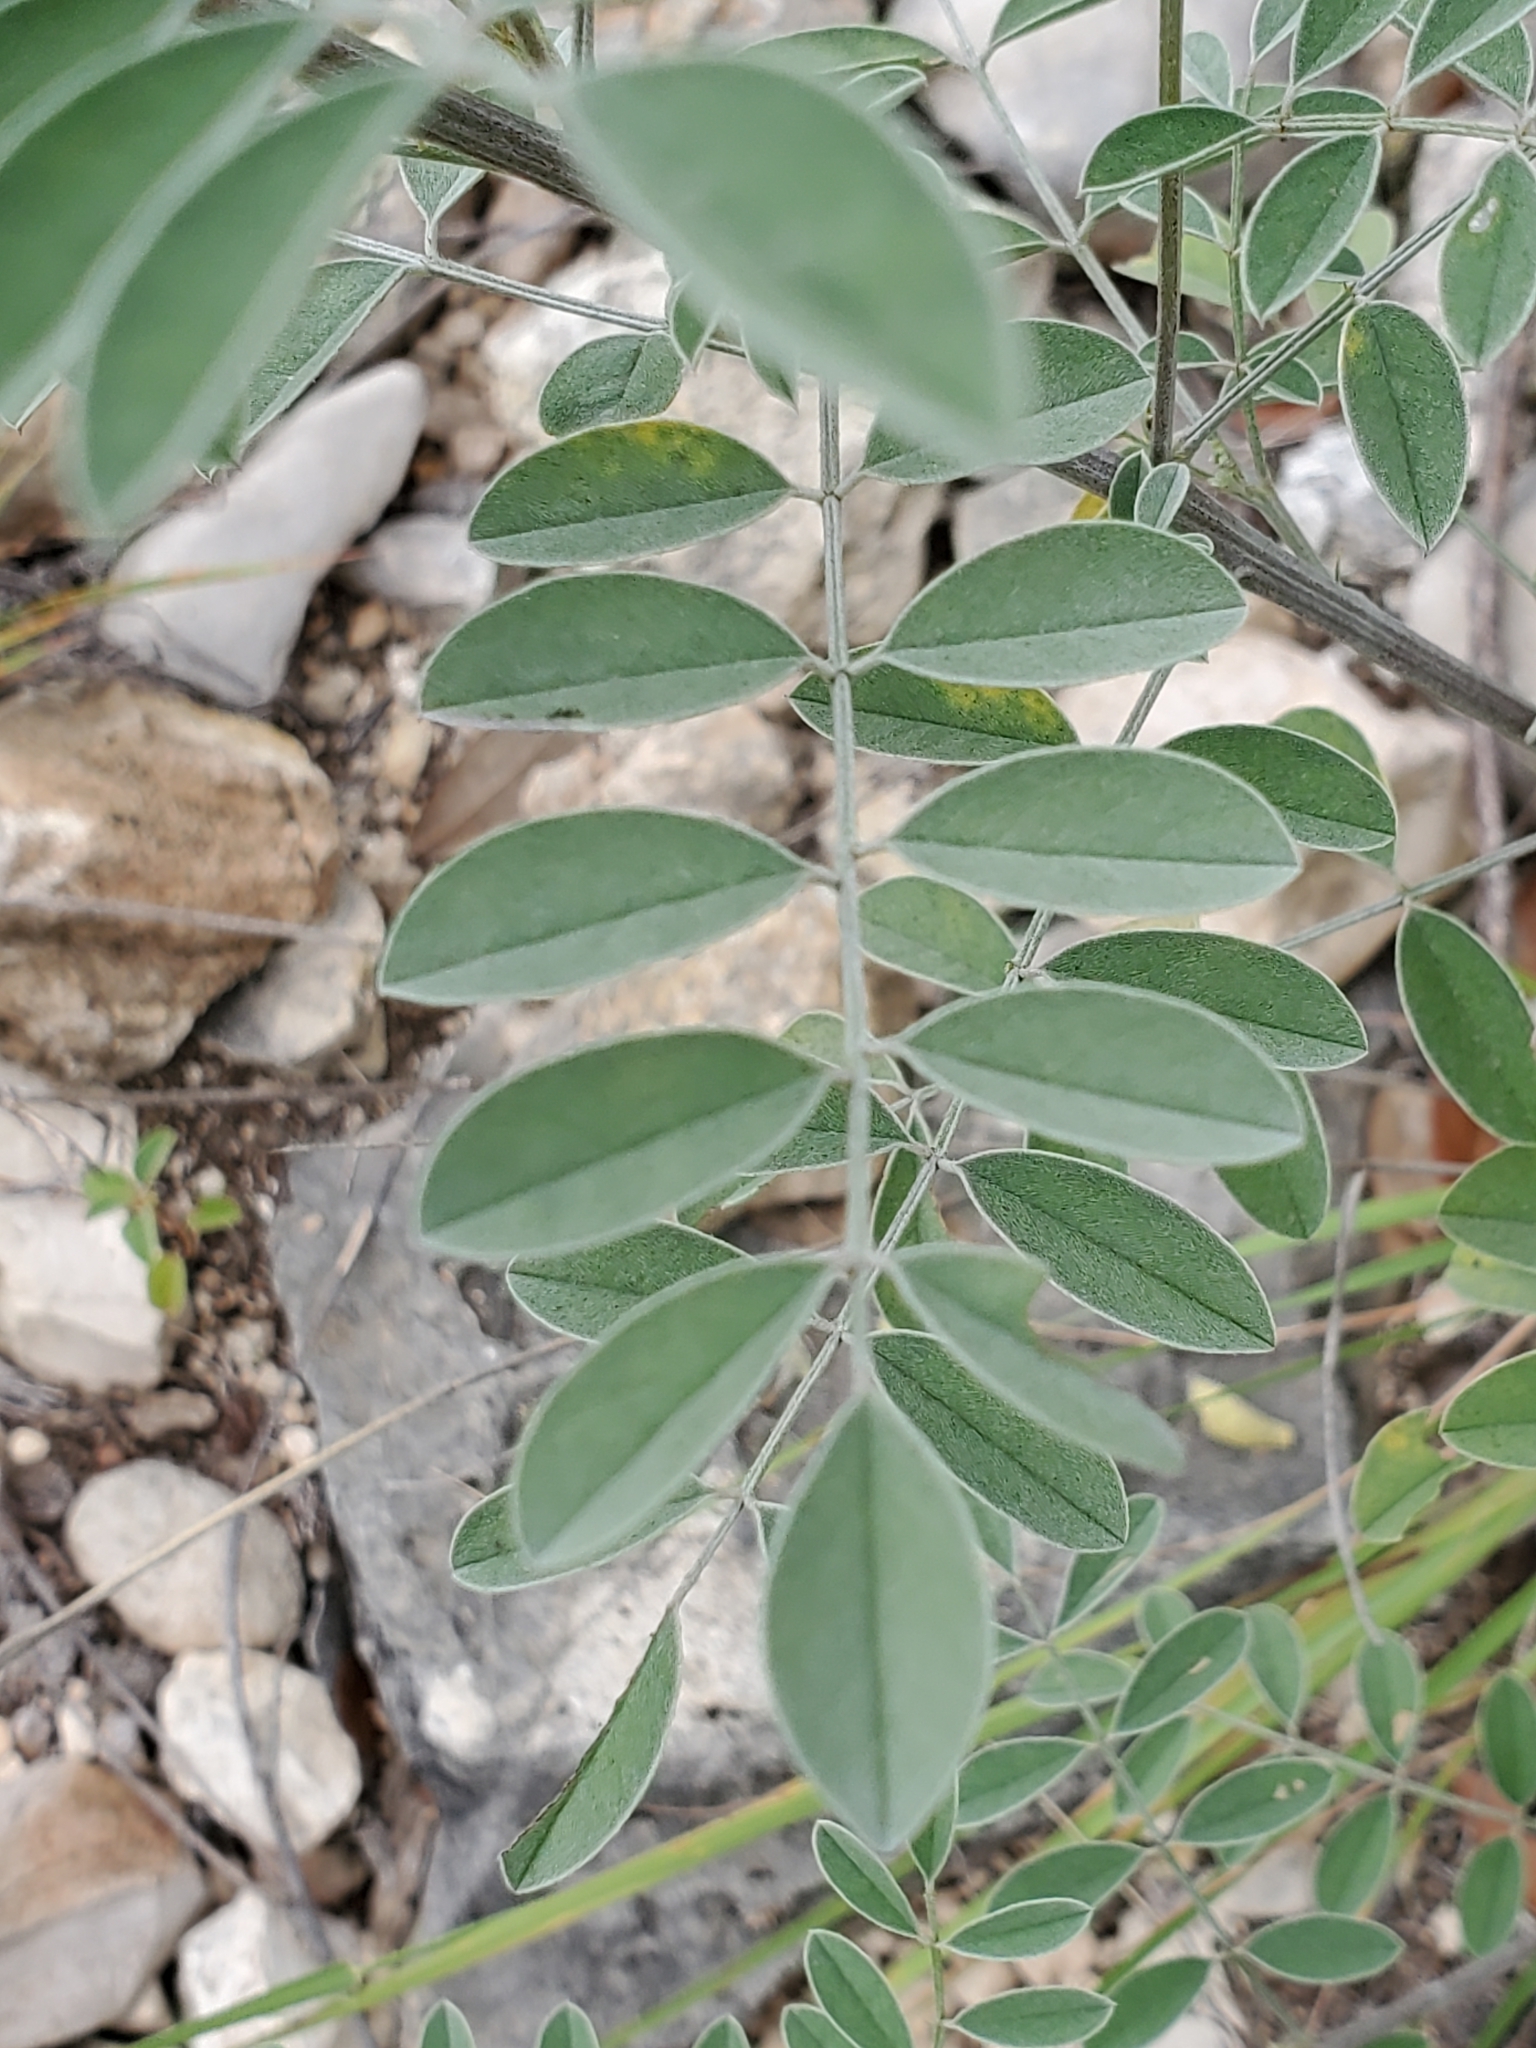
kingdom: Plantae
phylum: Tracheophyta
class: Magnoliopsida
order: Fabales
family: Fabaceae
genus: Indigofera
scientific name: Indigofera lindheimeriana
